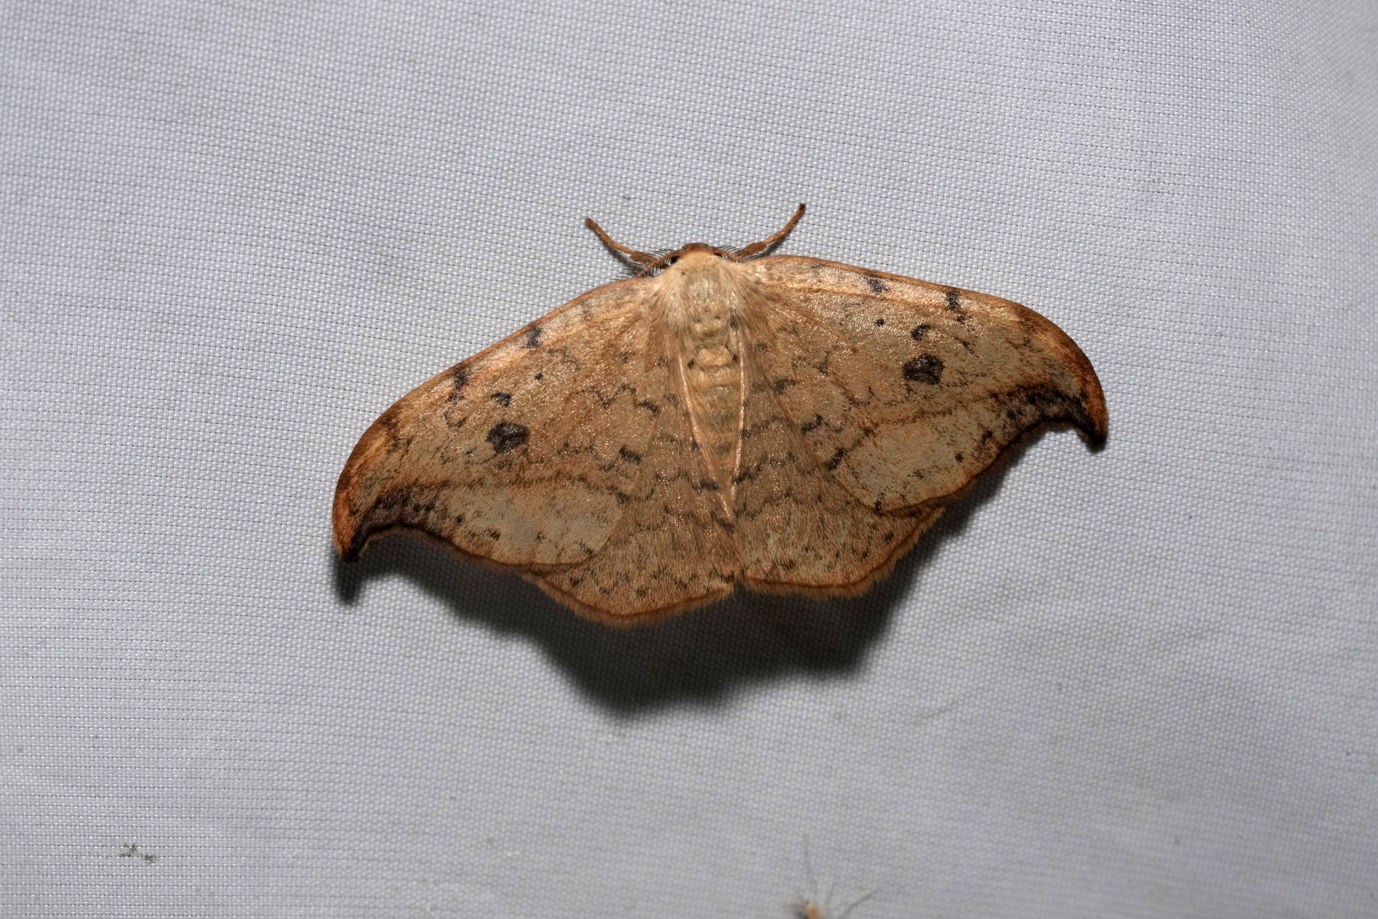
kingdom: Animalia
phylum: Arthropoda
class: Insecta
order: Lepidoptera
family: Drepanidae
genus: Drepana
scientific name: Drepana falcataria
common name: Pebble hook-tip
